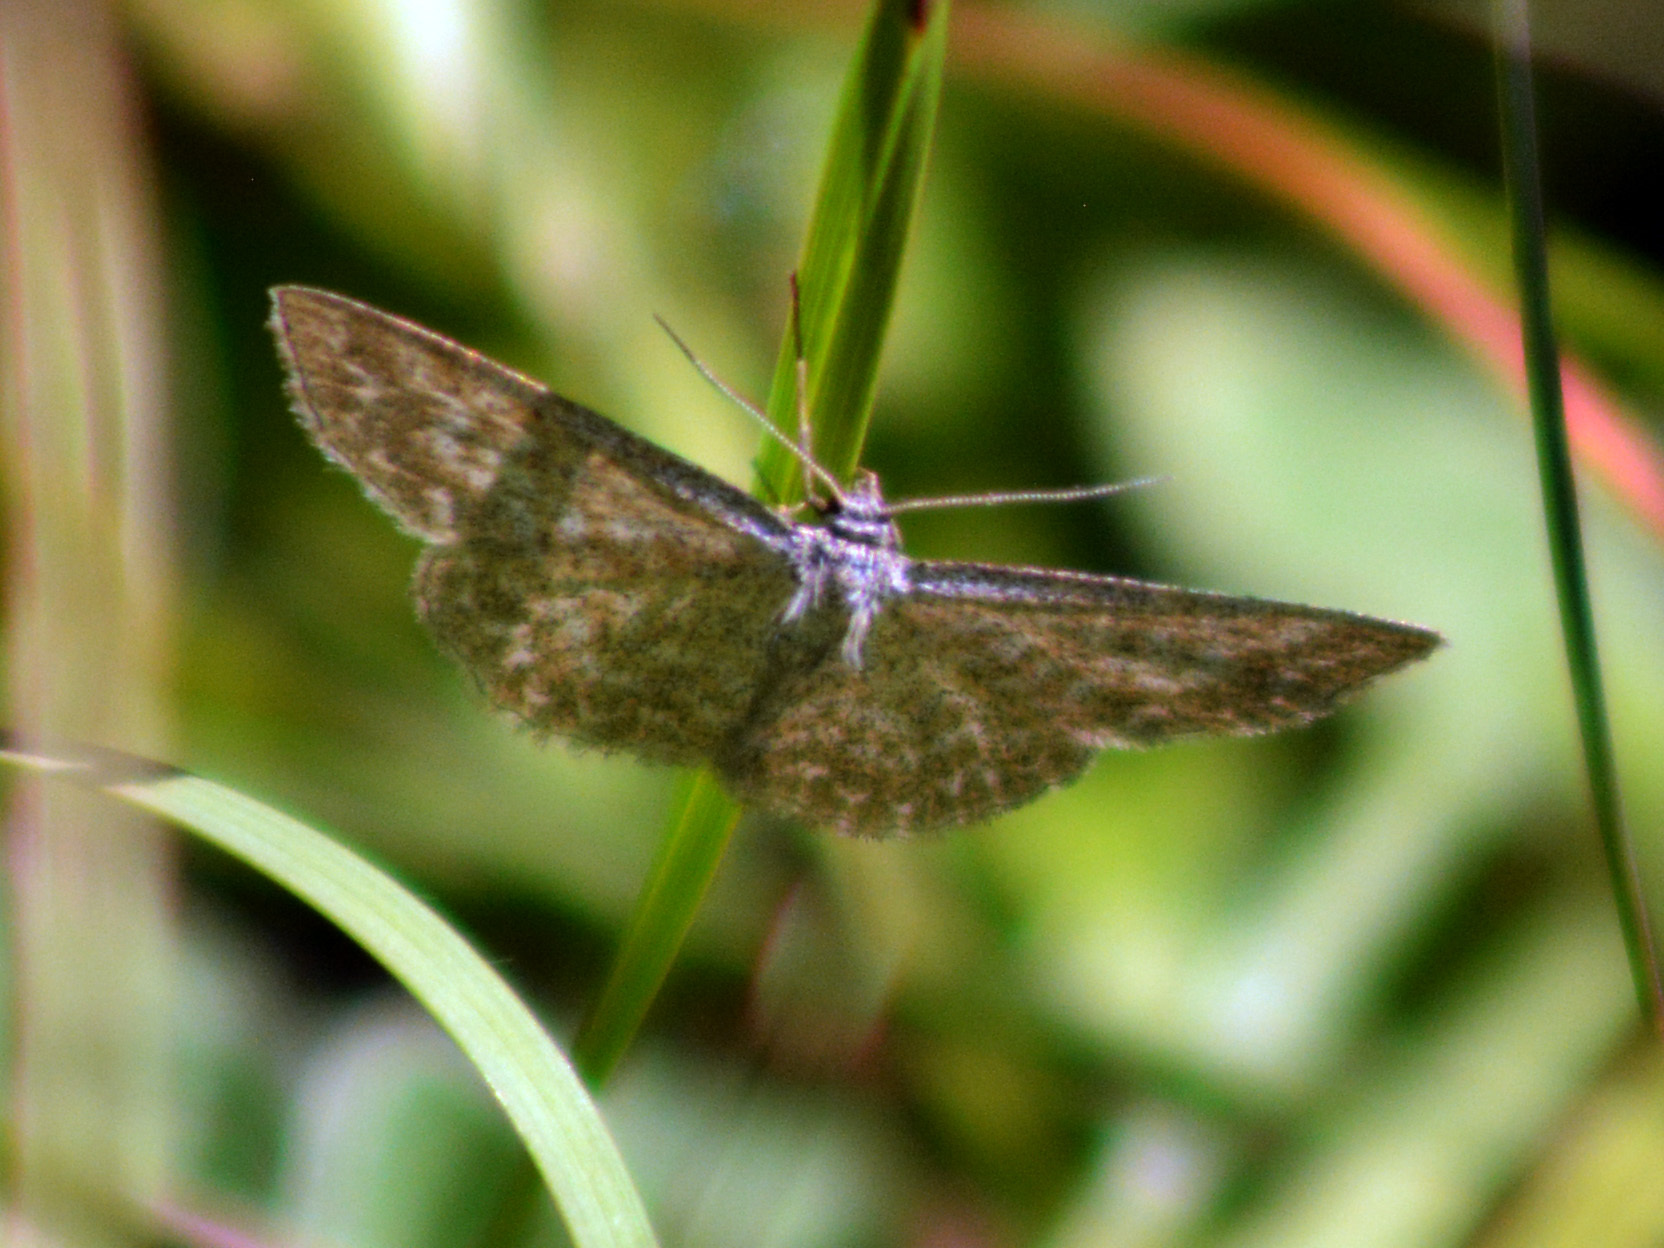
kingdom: Animalia
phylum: Arthropoda
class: Insecta
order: Lepidoptera
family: Geometridae
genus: Scopula
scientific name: Scopula immorata
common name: Lewes wave
